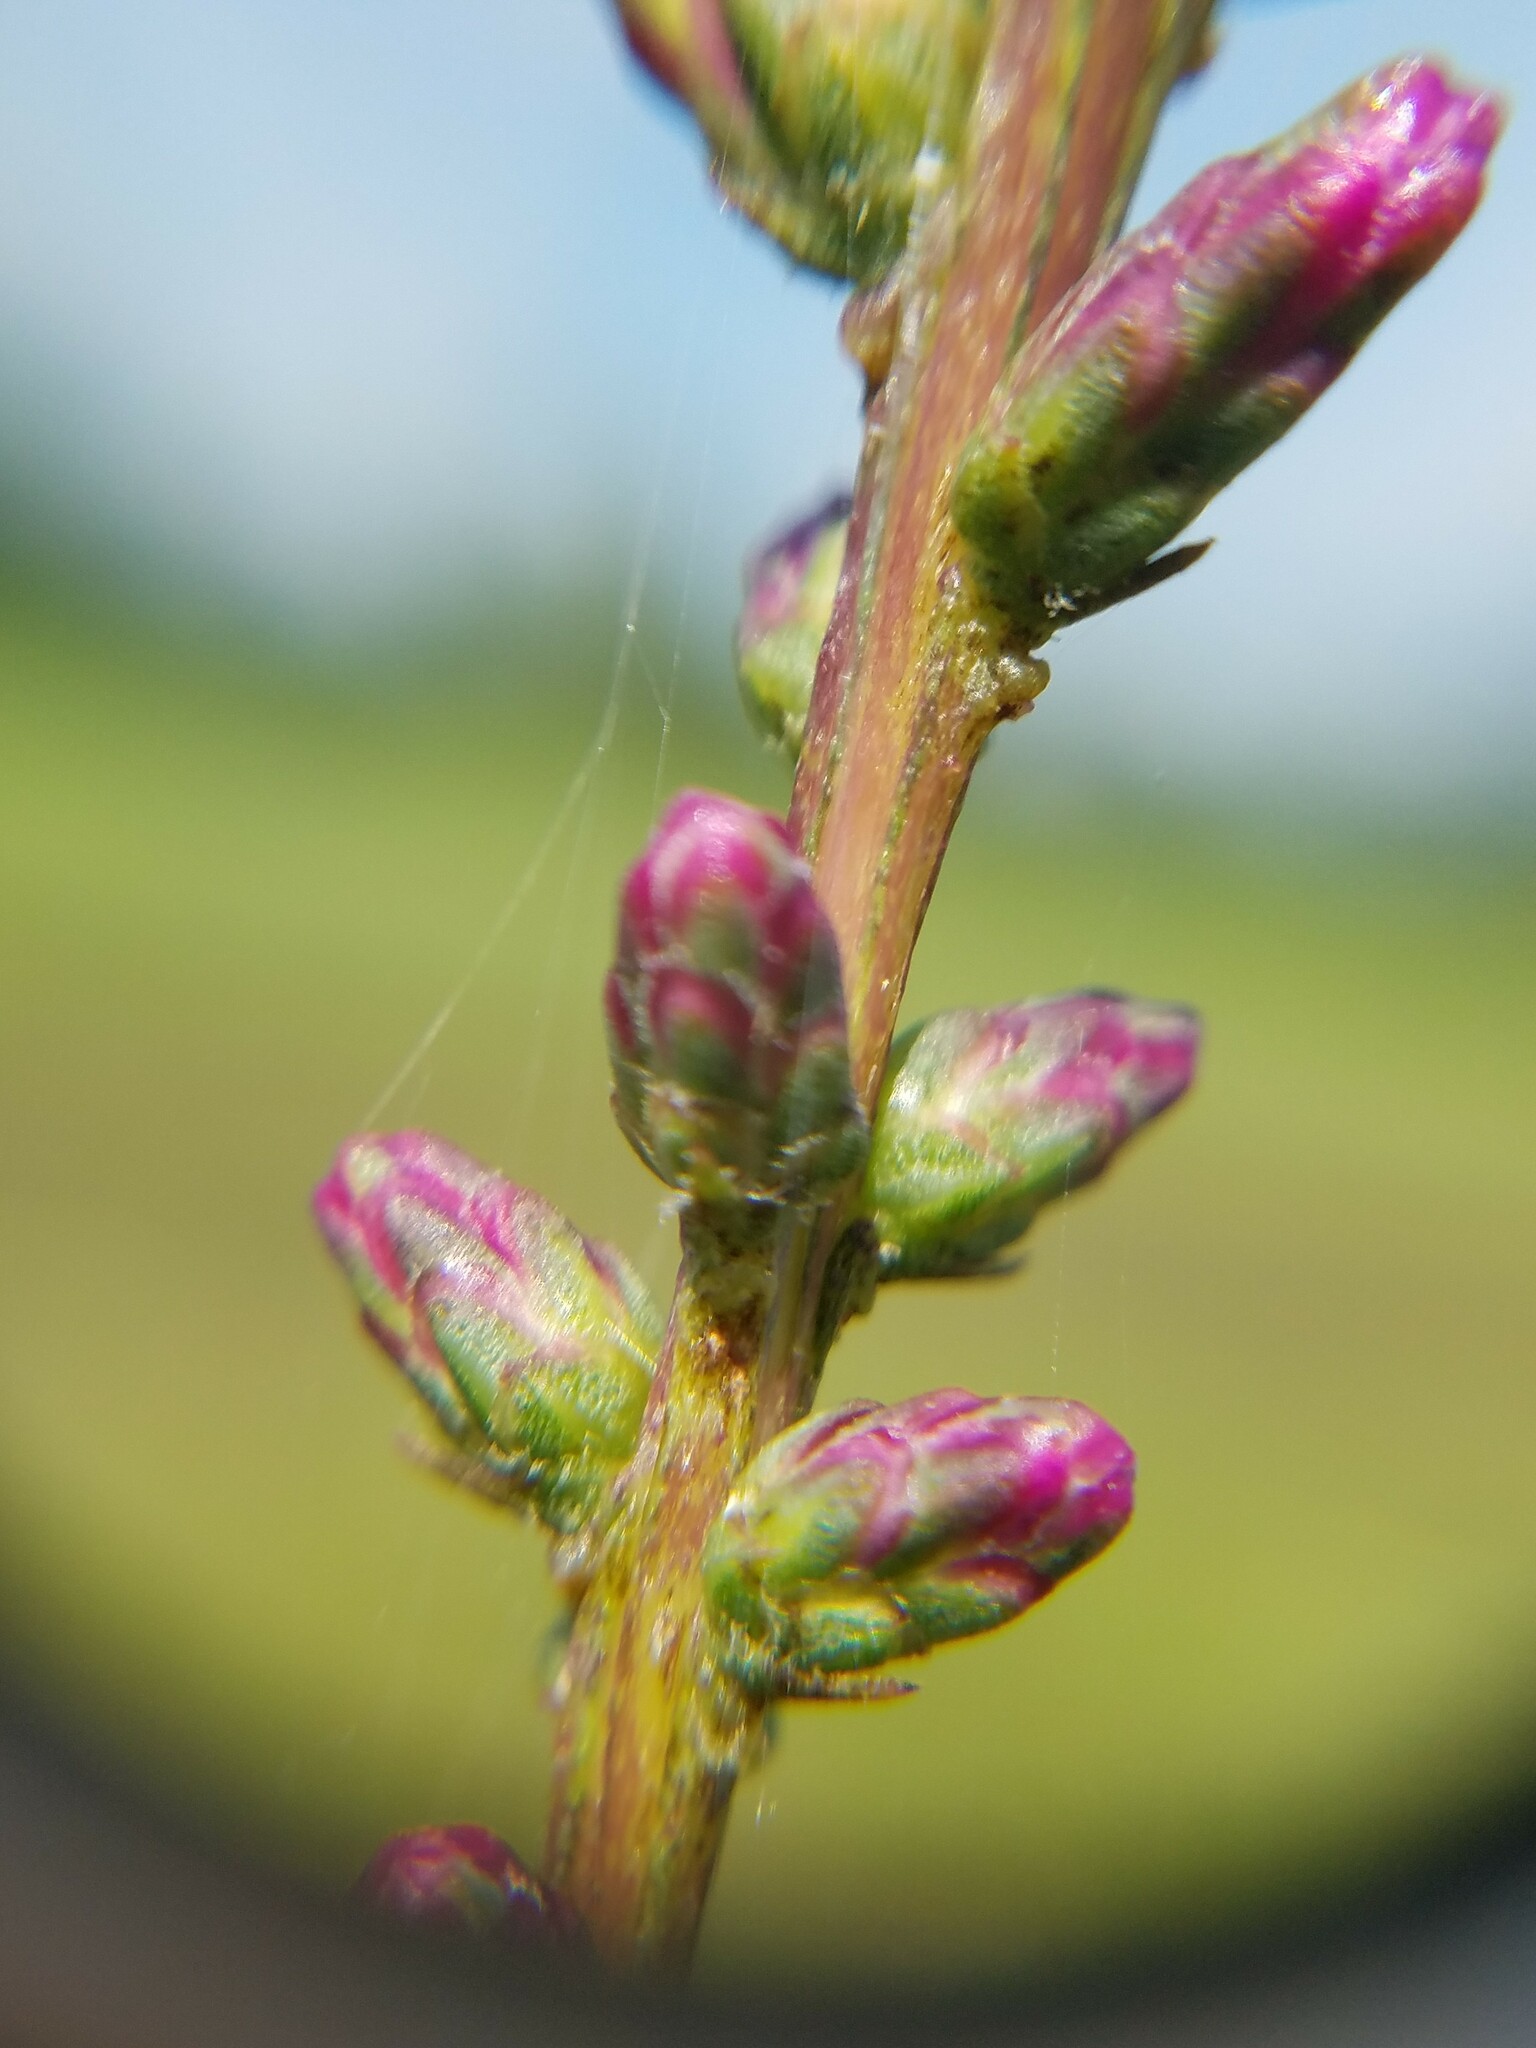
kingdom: Plantae
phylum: Tracheophyta
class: Magnoliopsida
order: Asterales
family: Asteraceae
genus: Liatris
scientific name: Liatris spicata
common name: Florist gayfeather
